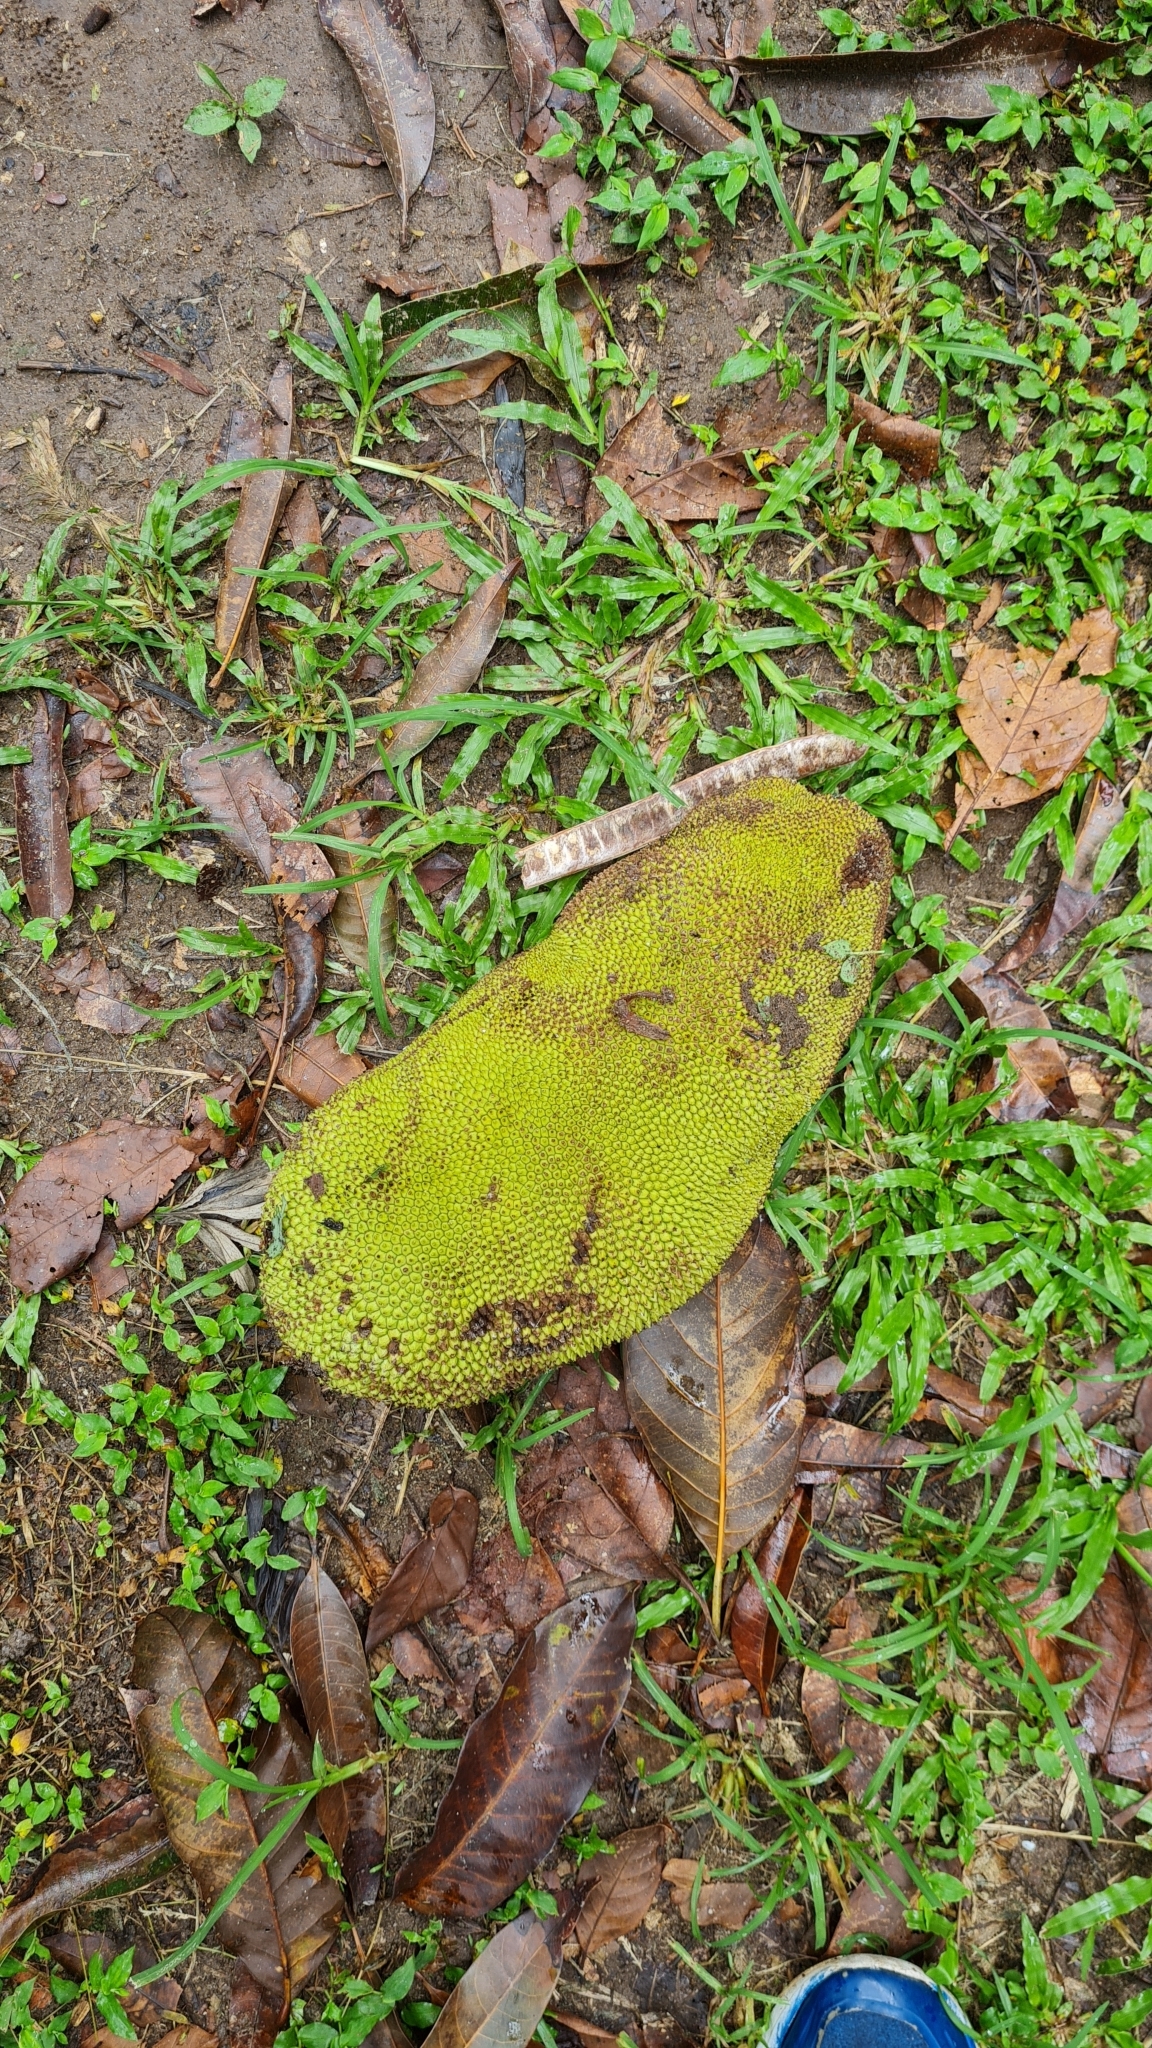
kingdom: Plantae
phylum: Tracheophyta
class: Magnoliopsida
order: Rosales
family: Moraceae
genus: Artocarpus
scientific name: Artocarpus heterophyllus
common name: Jackfruit
